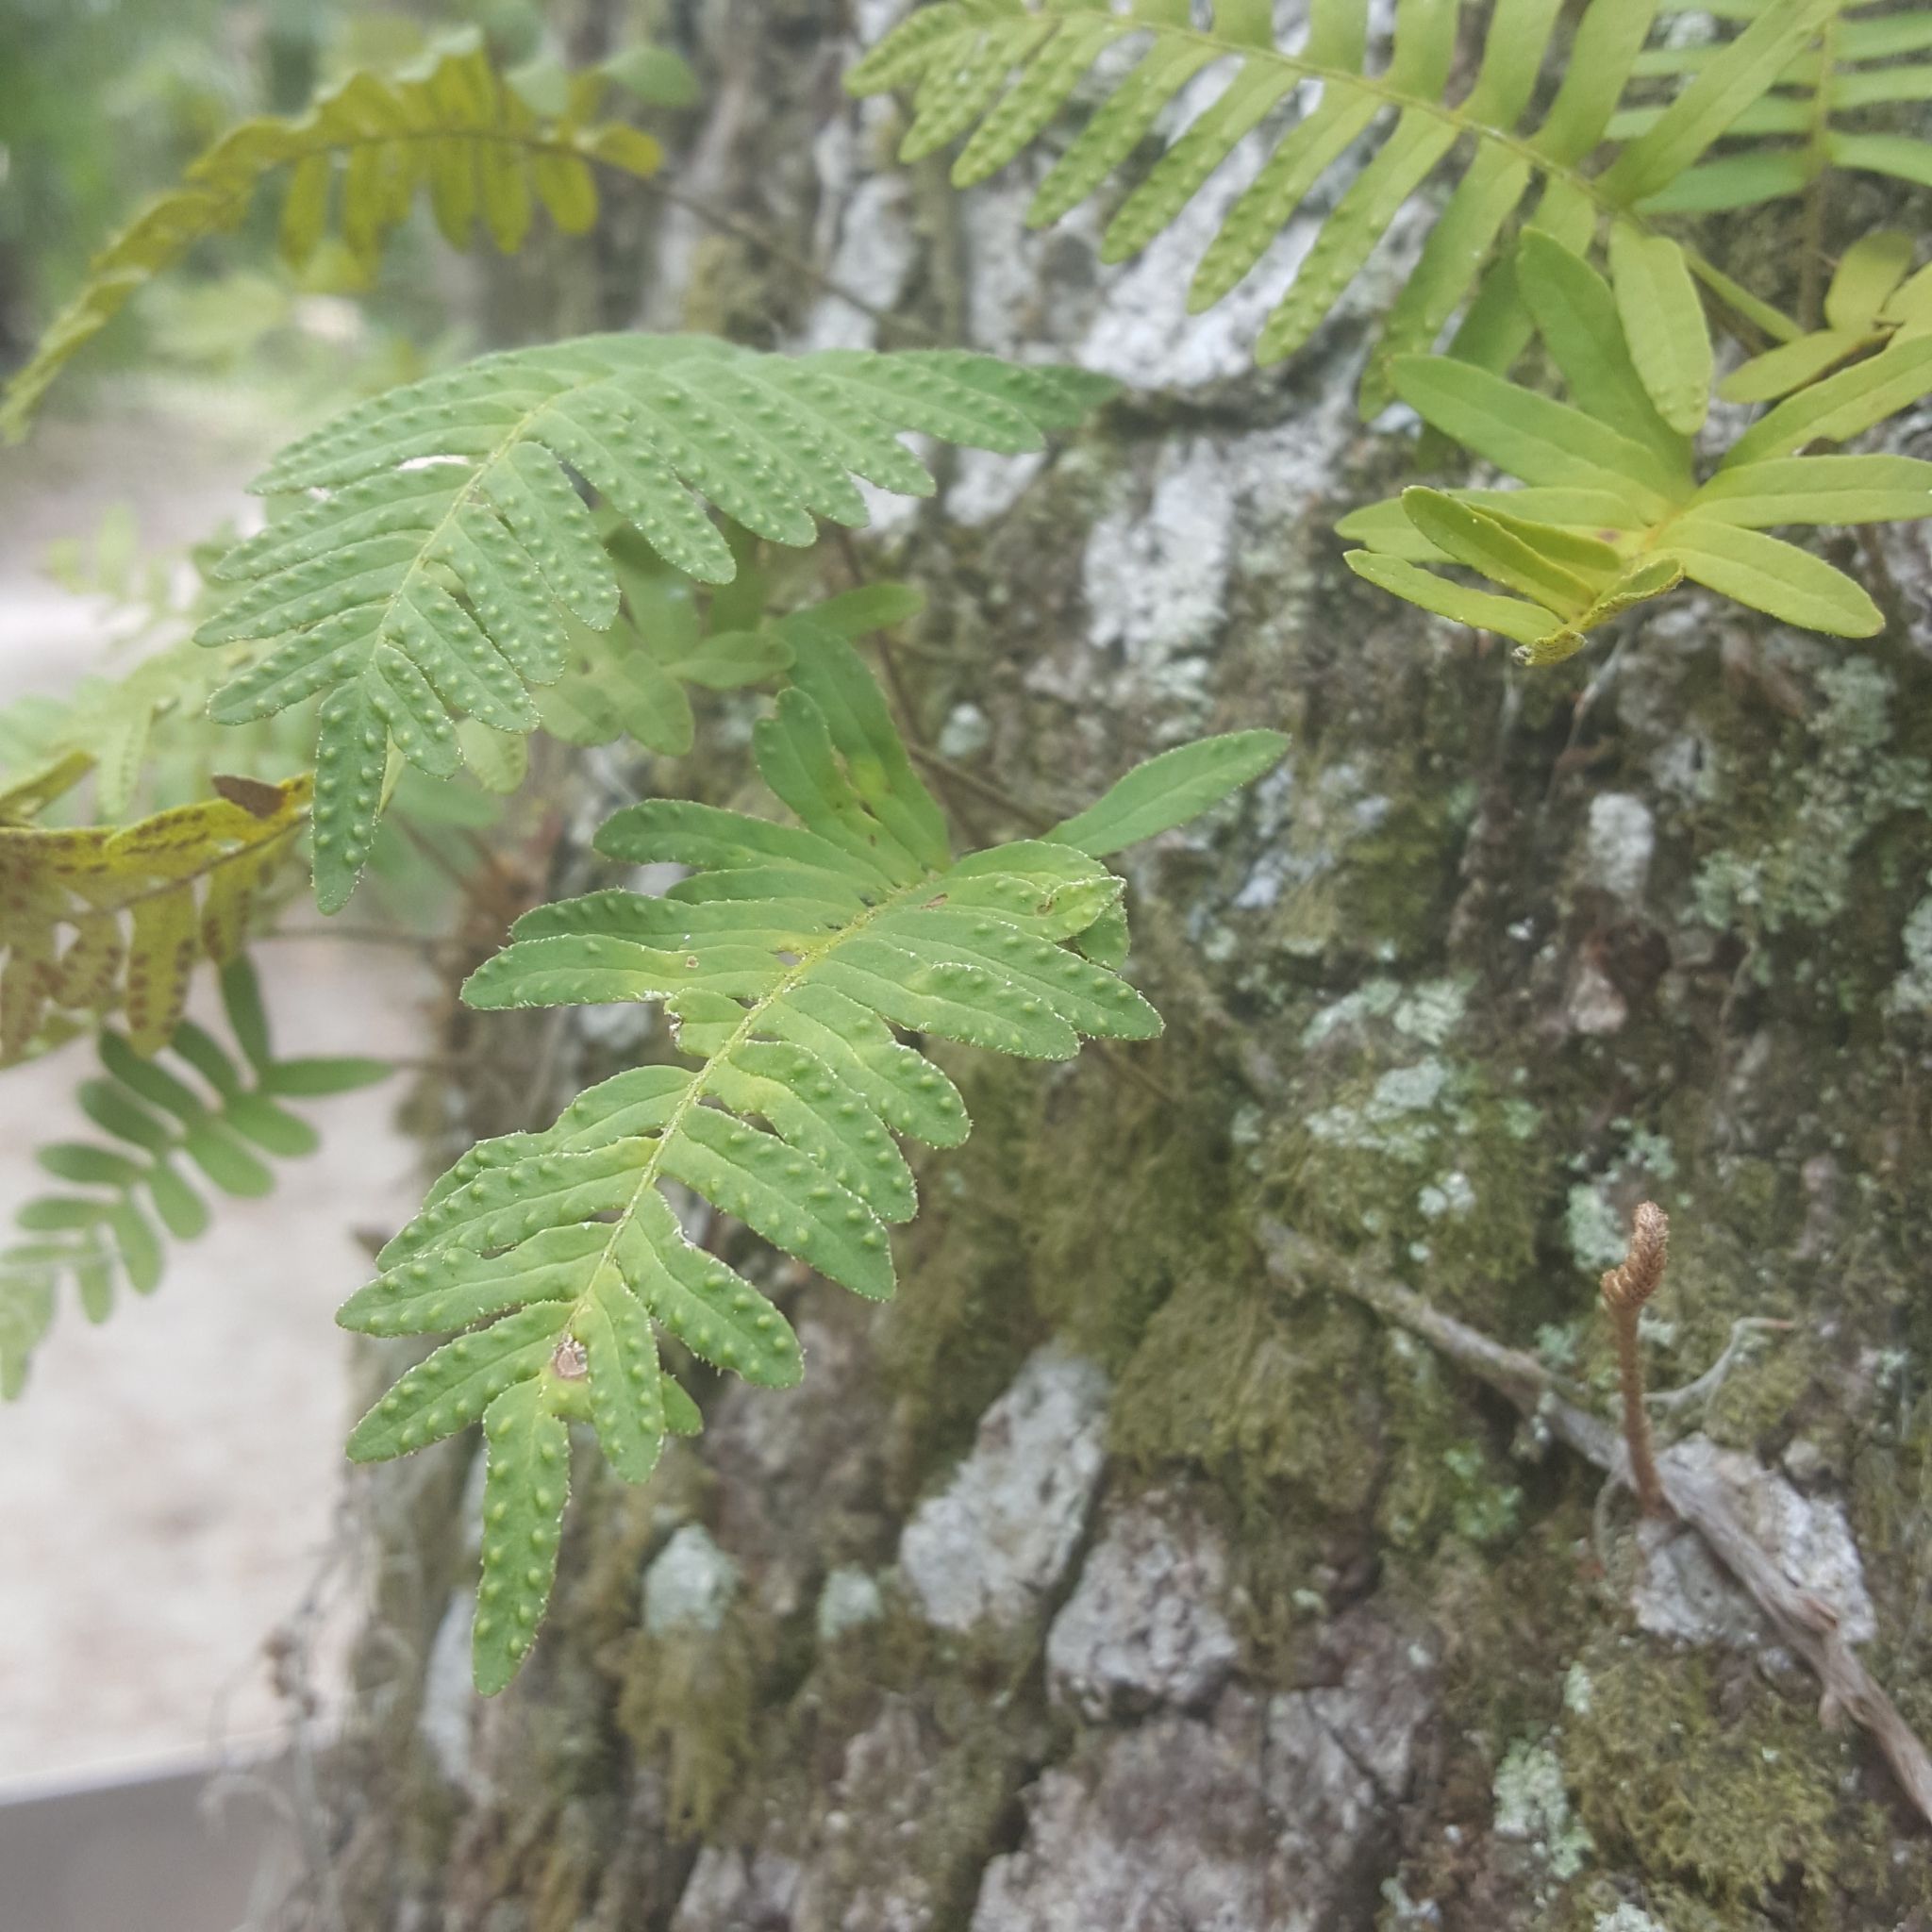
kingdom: Plantae
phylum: Tracheophyta
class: Polypodiopsida
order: Polypodiales
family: Polypodiaceae
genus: Pleopeltis
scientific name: Pleopeltis michauxiana
